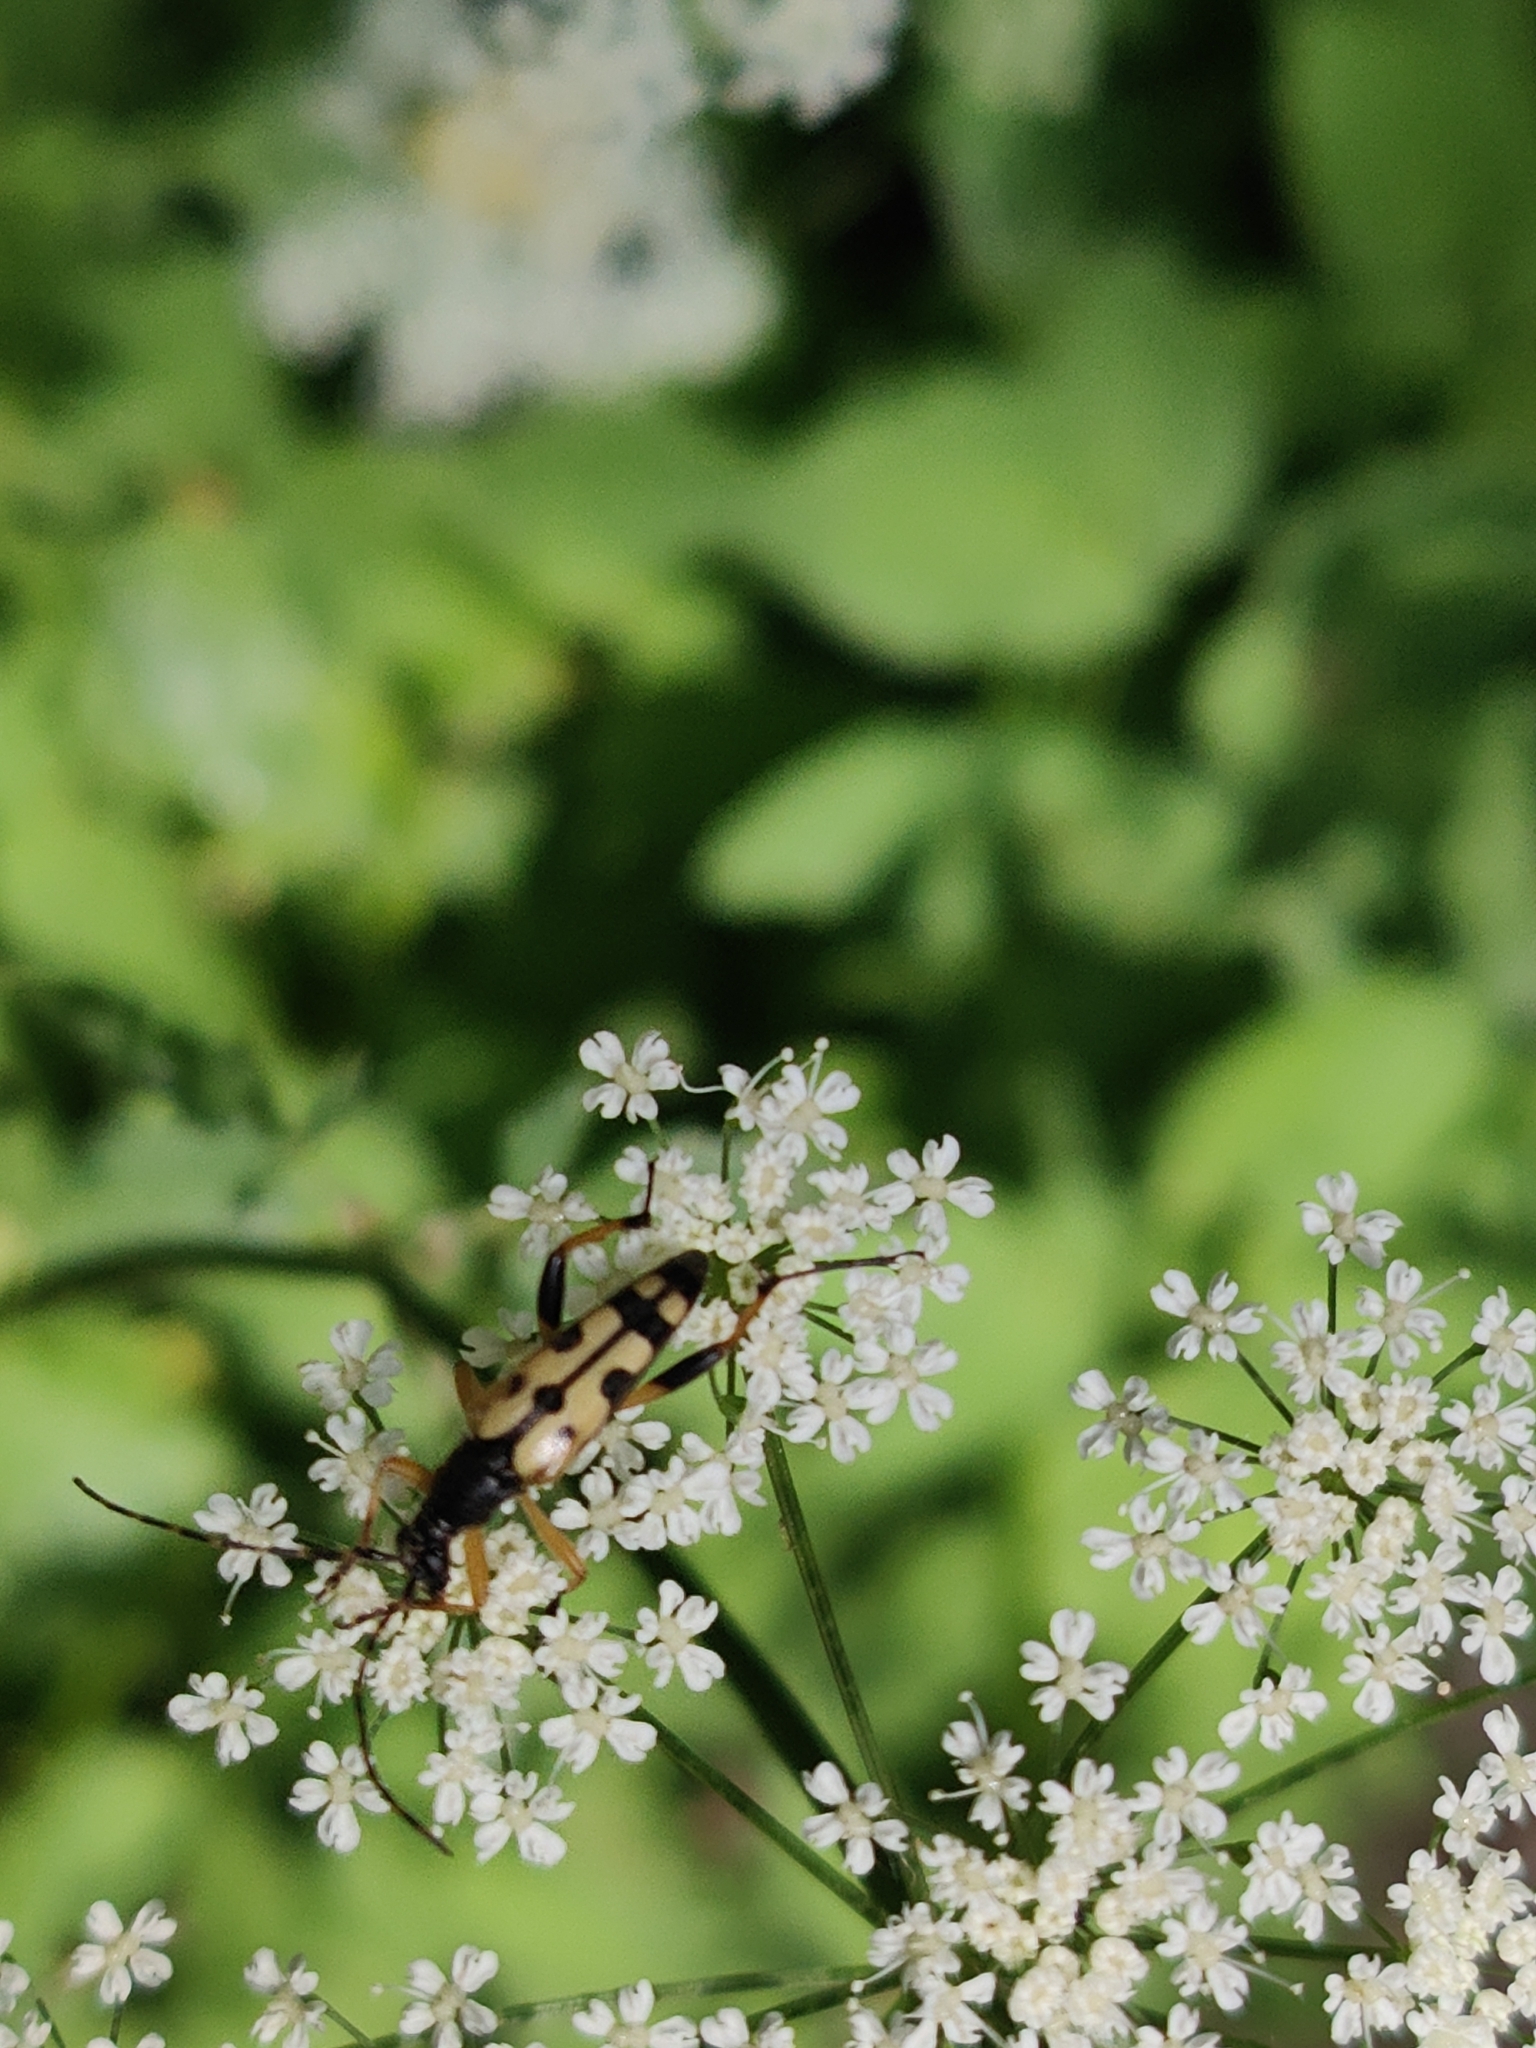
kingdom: Animalia
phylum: Arthropoda
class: Insecta
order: Coleoptera
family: Cerambycidae
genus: Rutpela
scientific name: Rutpela maculata
